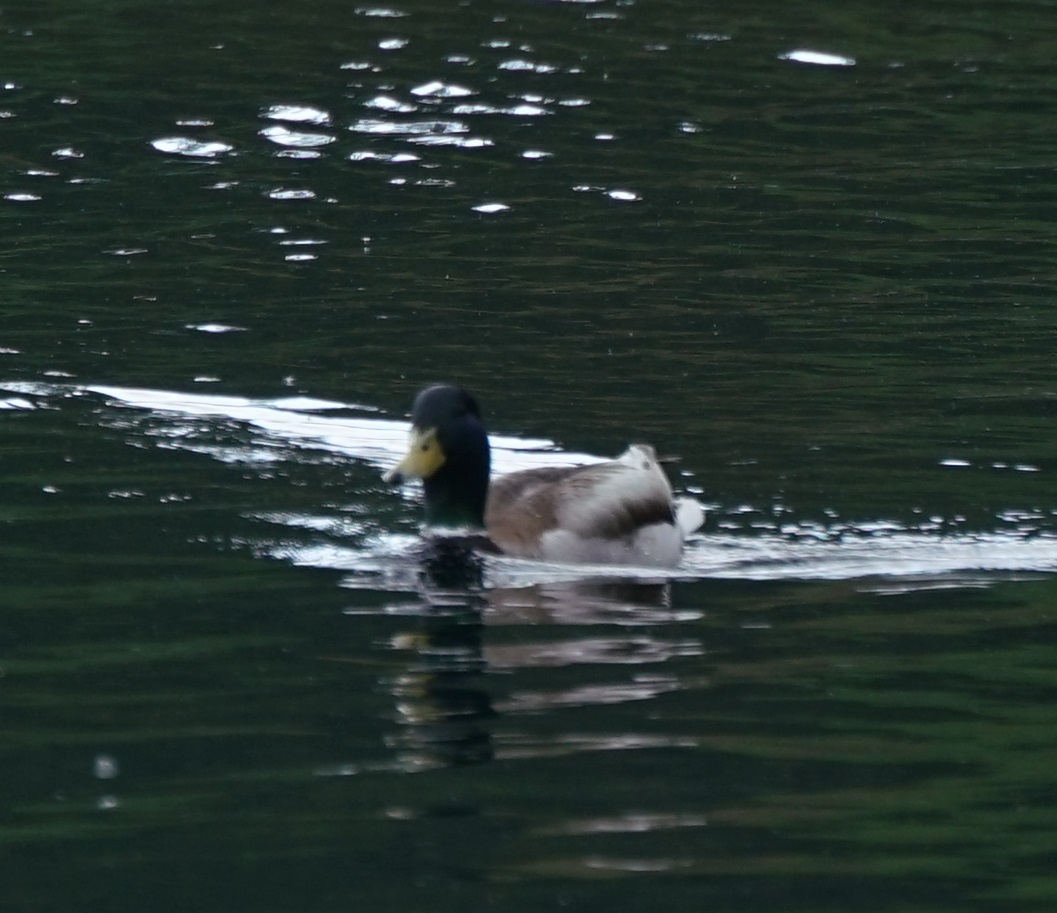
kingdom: Animalia
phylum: Chordata
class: Aves
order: Anseriformes
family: Anatidae
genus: Anas
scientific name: Anas platyrhynchos
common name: Mallard
